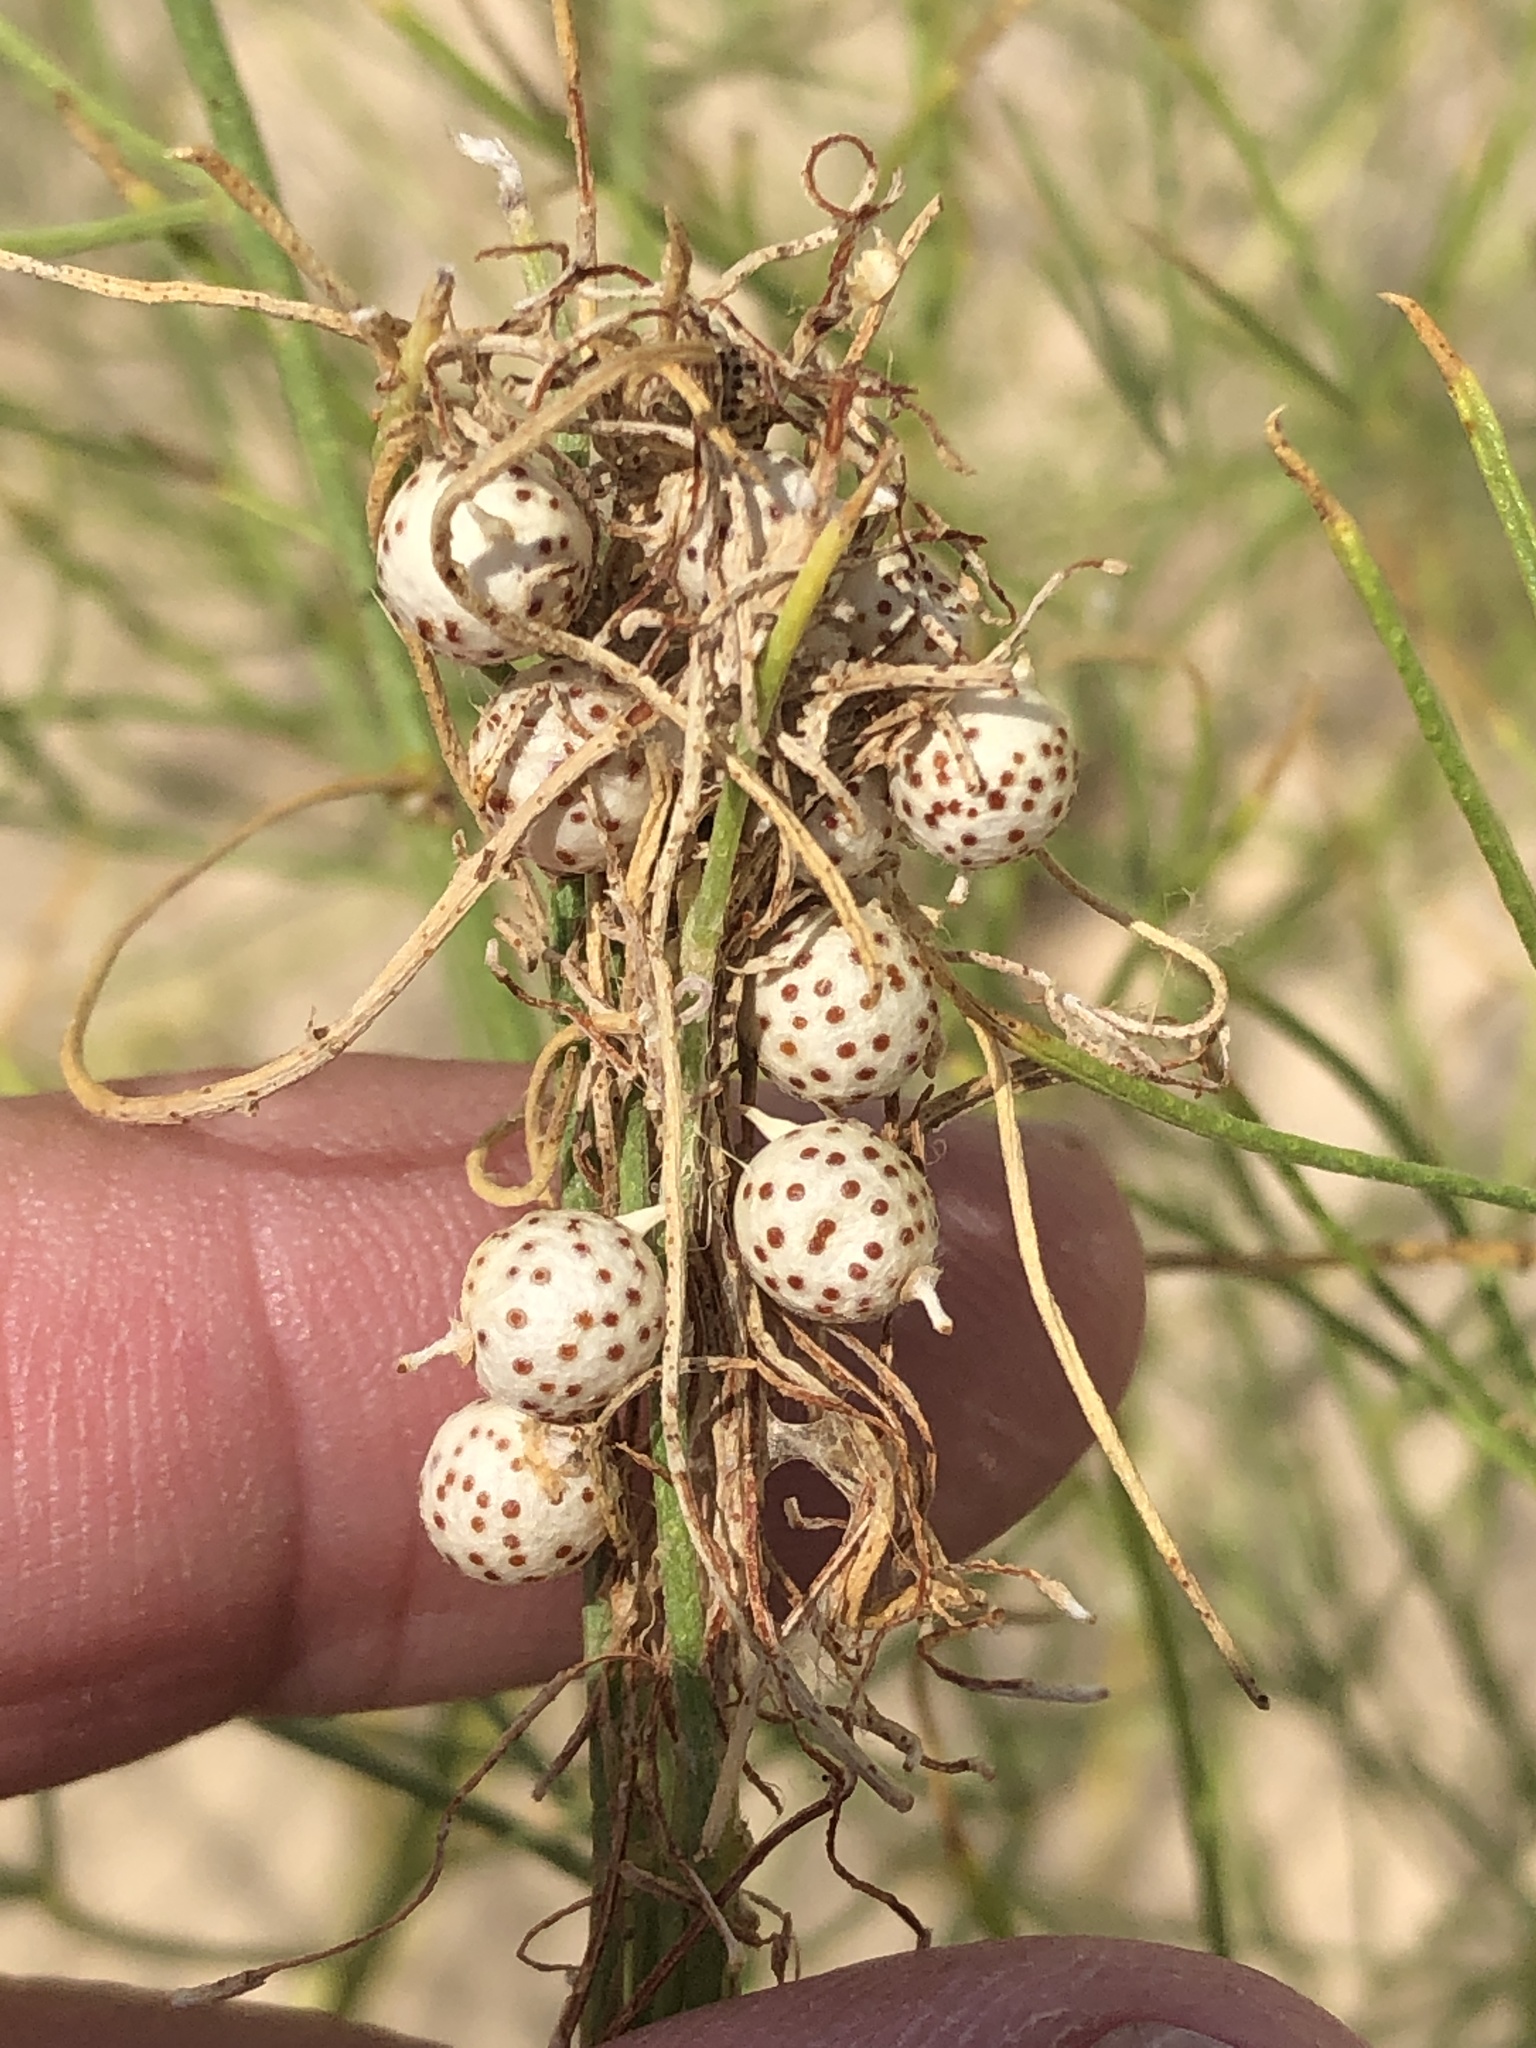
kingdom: Plantae
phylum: Tracheophyta
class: Magnoliopsida
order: Fabales
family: Fabaceae
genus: Ladeania
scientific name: Ladeania lanceolata
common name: Dune scurf-pea
